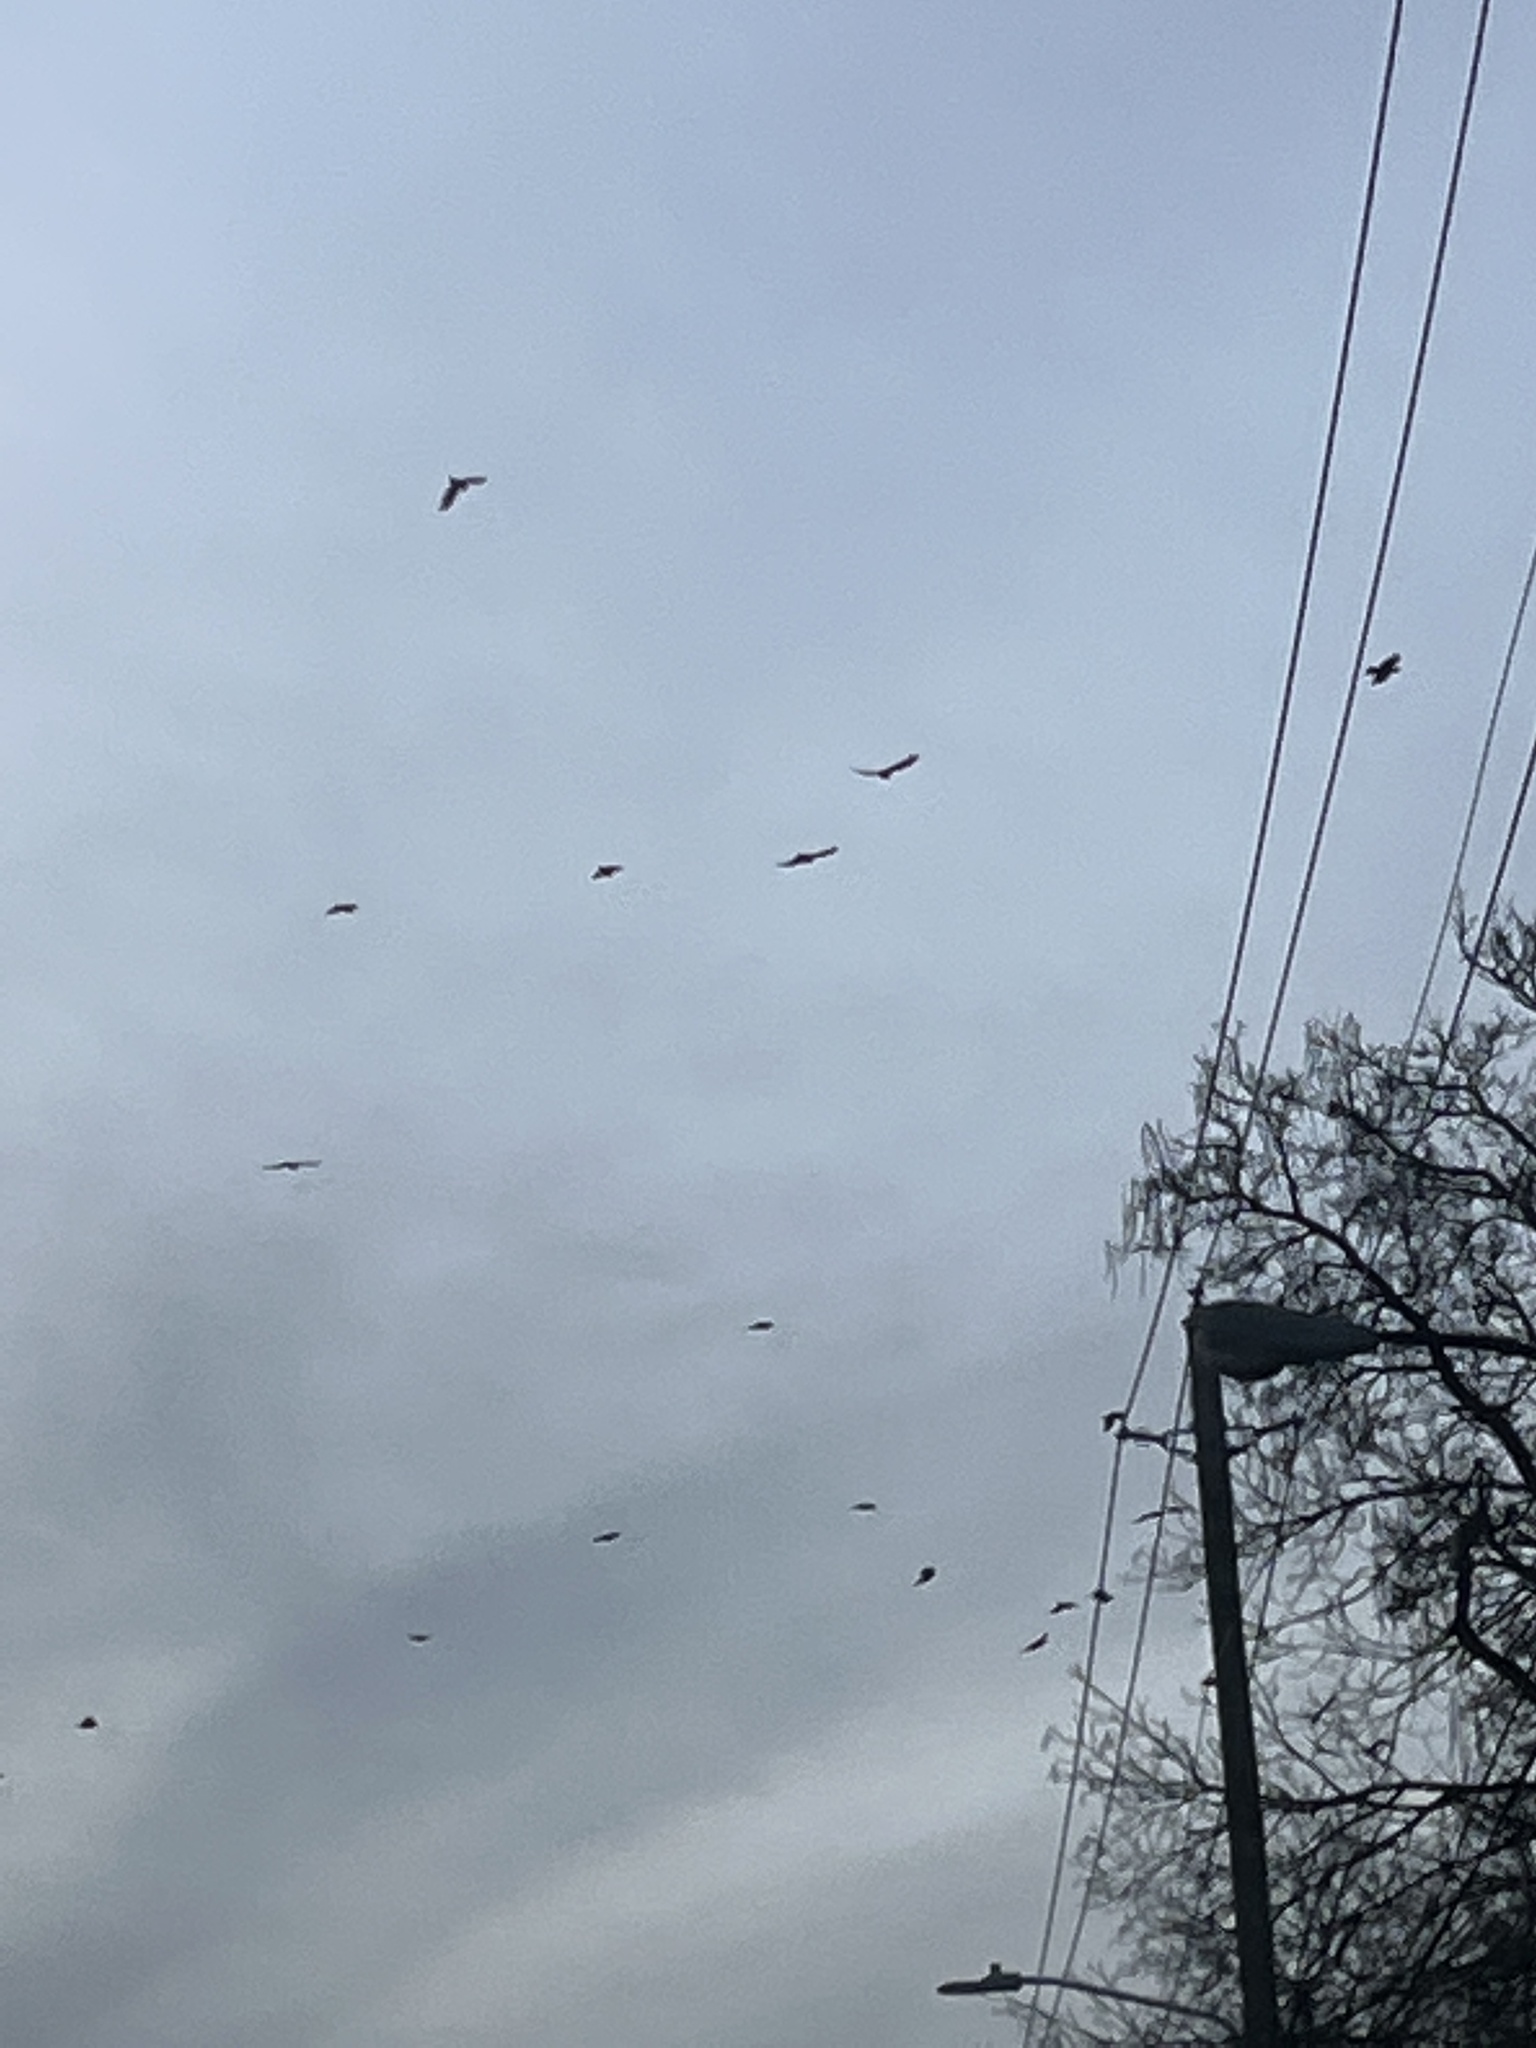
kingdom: Animalia
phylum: Chordata
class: Aves
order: Passeriformes
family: Corvidae
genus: Corvus
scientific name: Corvus brachyrhynchos
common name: American crow
